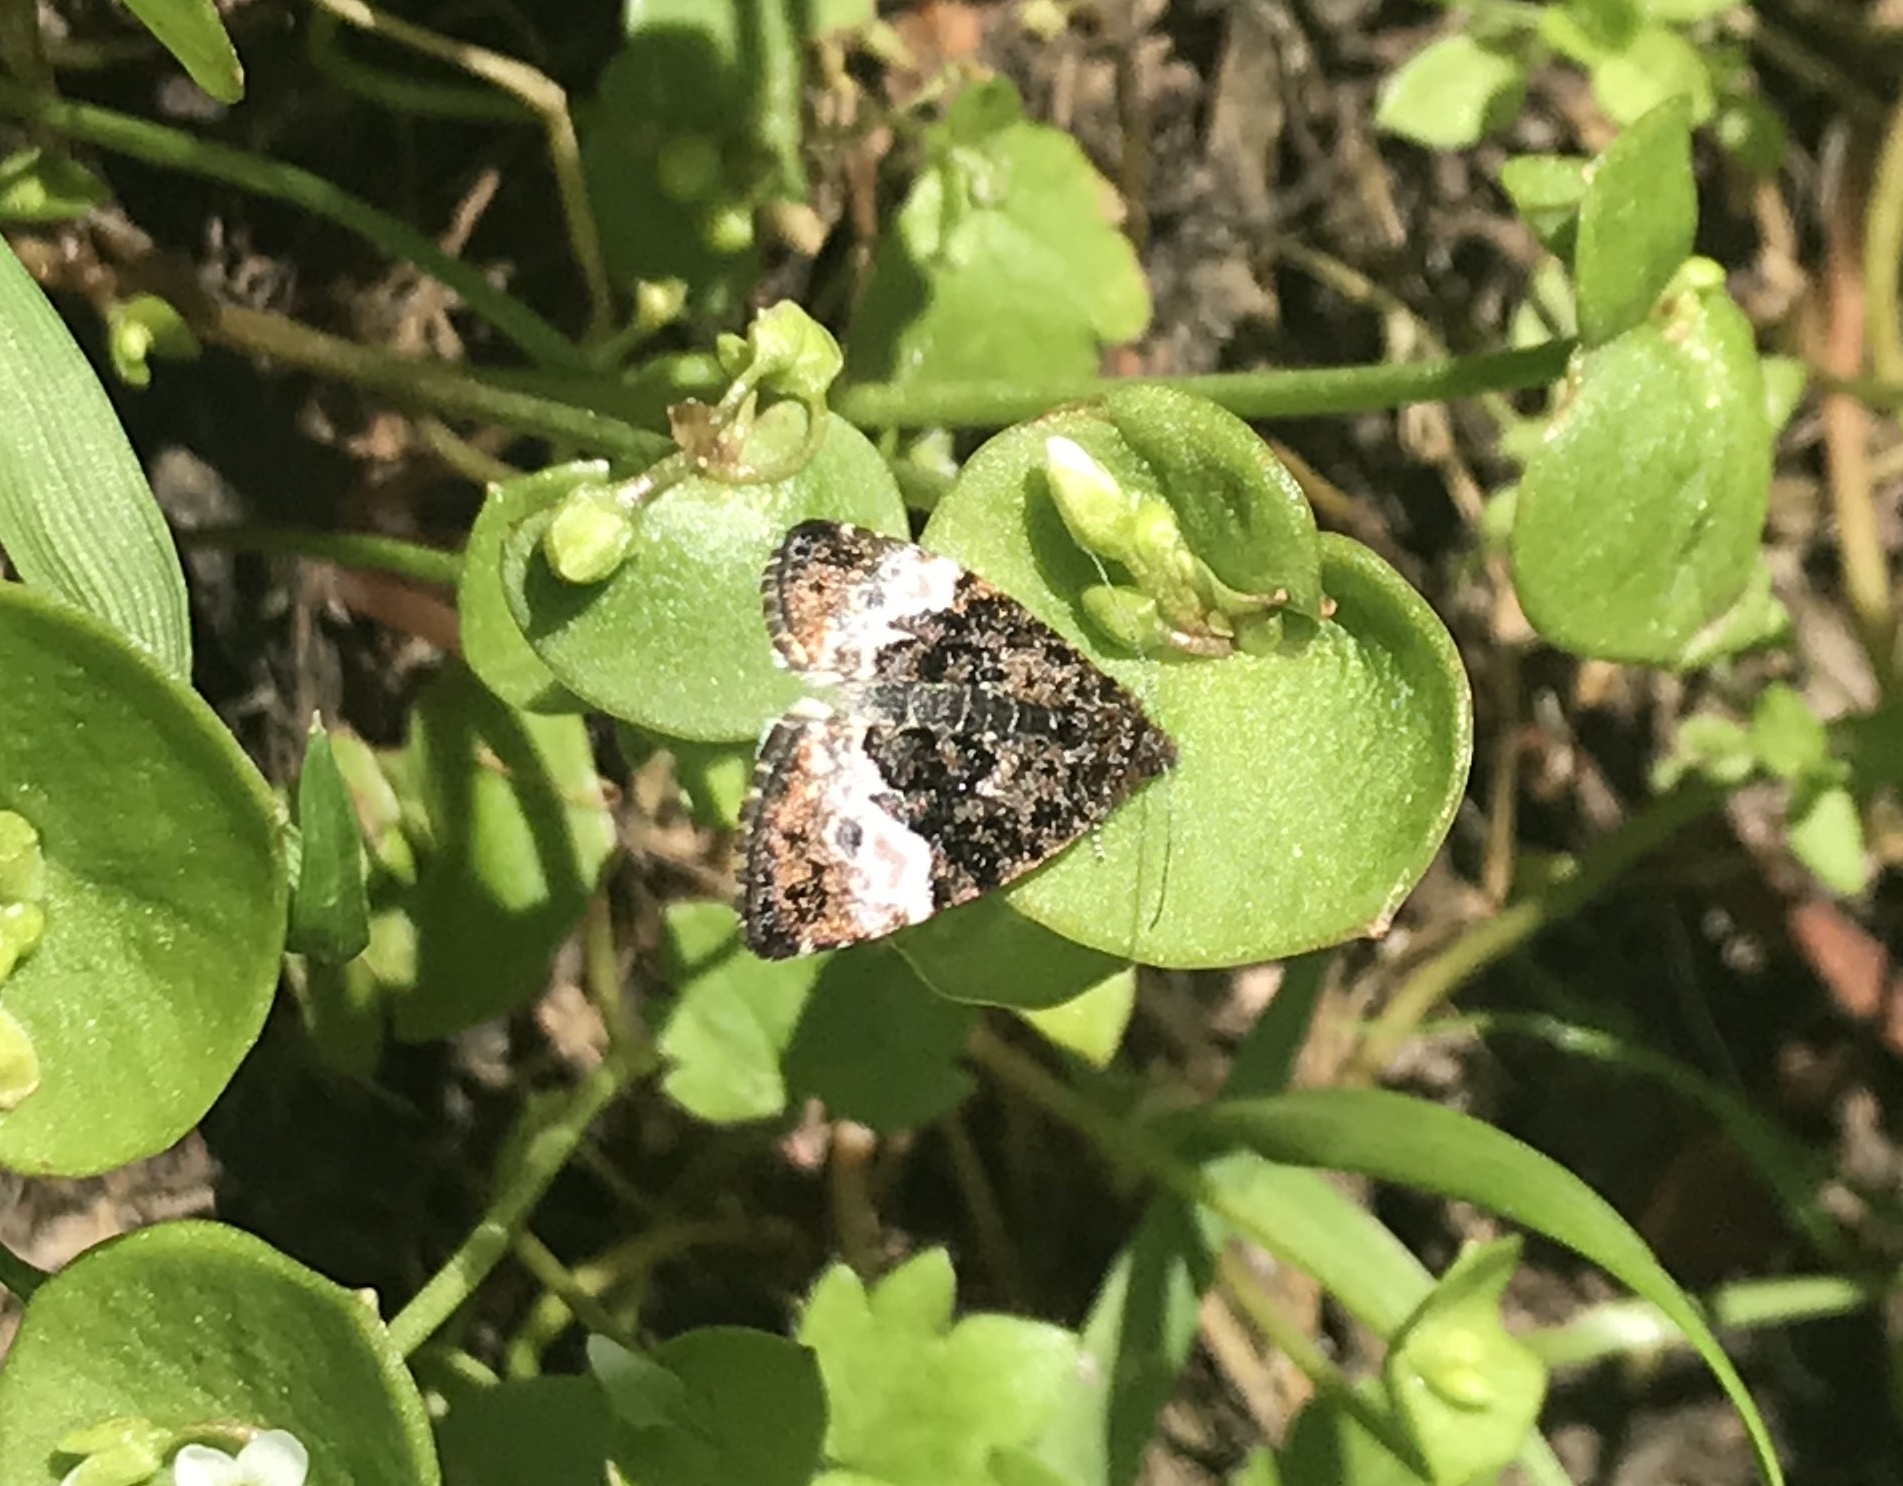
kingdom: Animalia
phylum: Arthropoda
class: Insecta
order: Lepidoptera
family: Noctuidae
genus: Annaphila
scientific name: Annaphila diva
